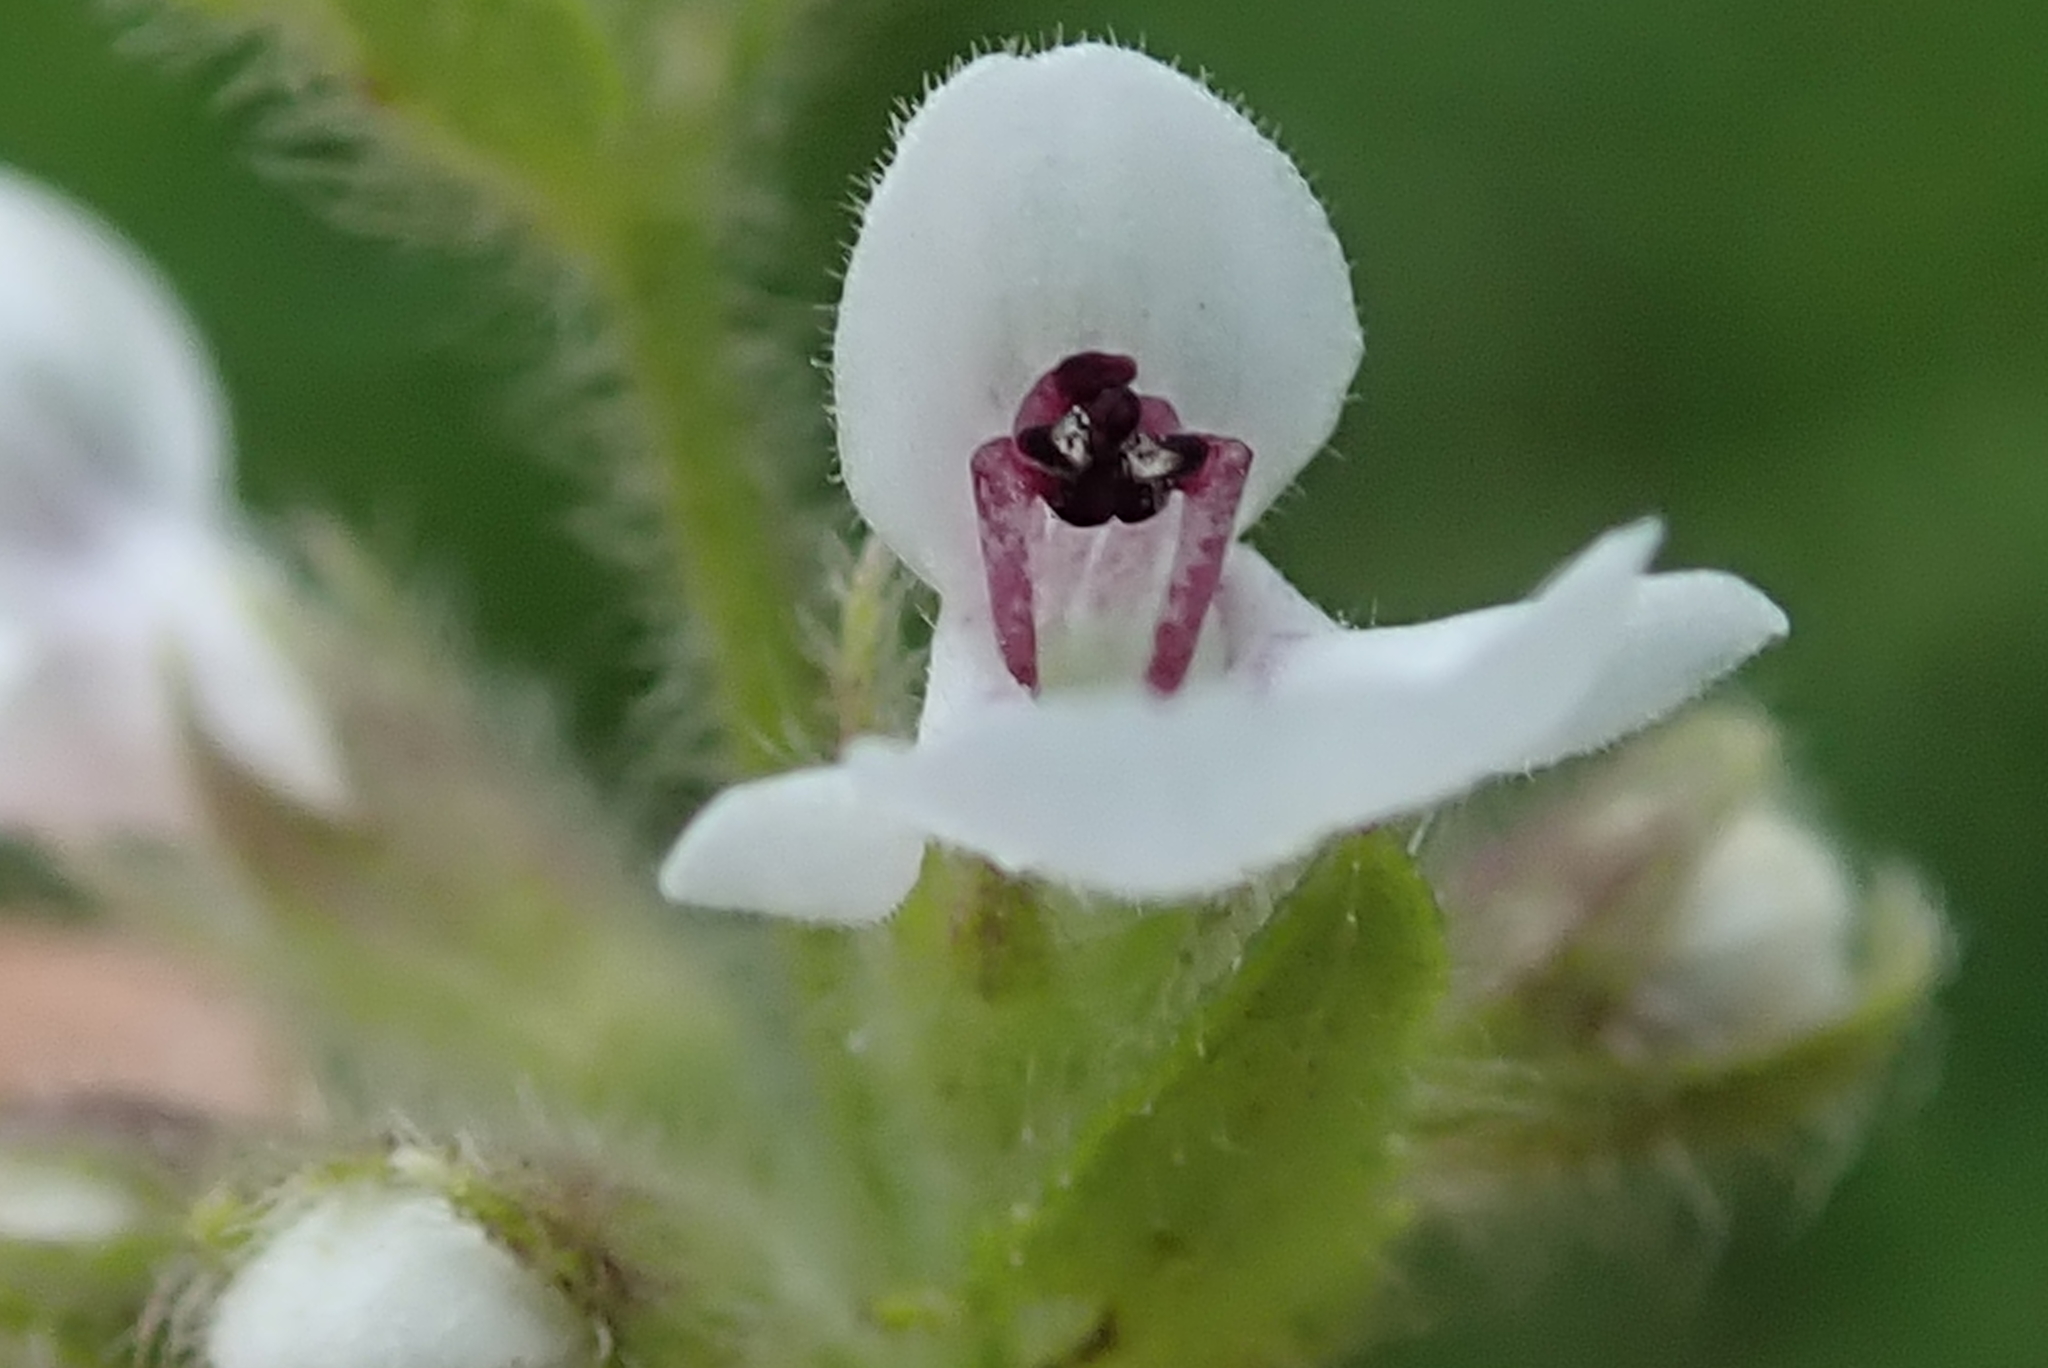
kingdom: Plantae
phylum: Tracheophyta
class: Magnoliopsida
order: Lamiales
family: Lamiaceae
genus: Stachys
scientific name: Stachys nigricans
